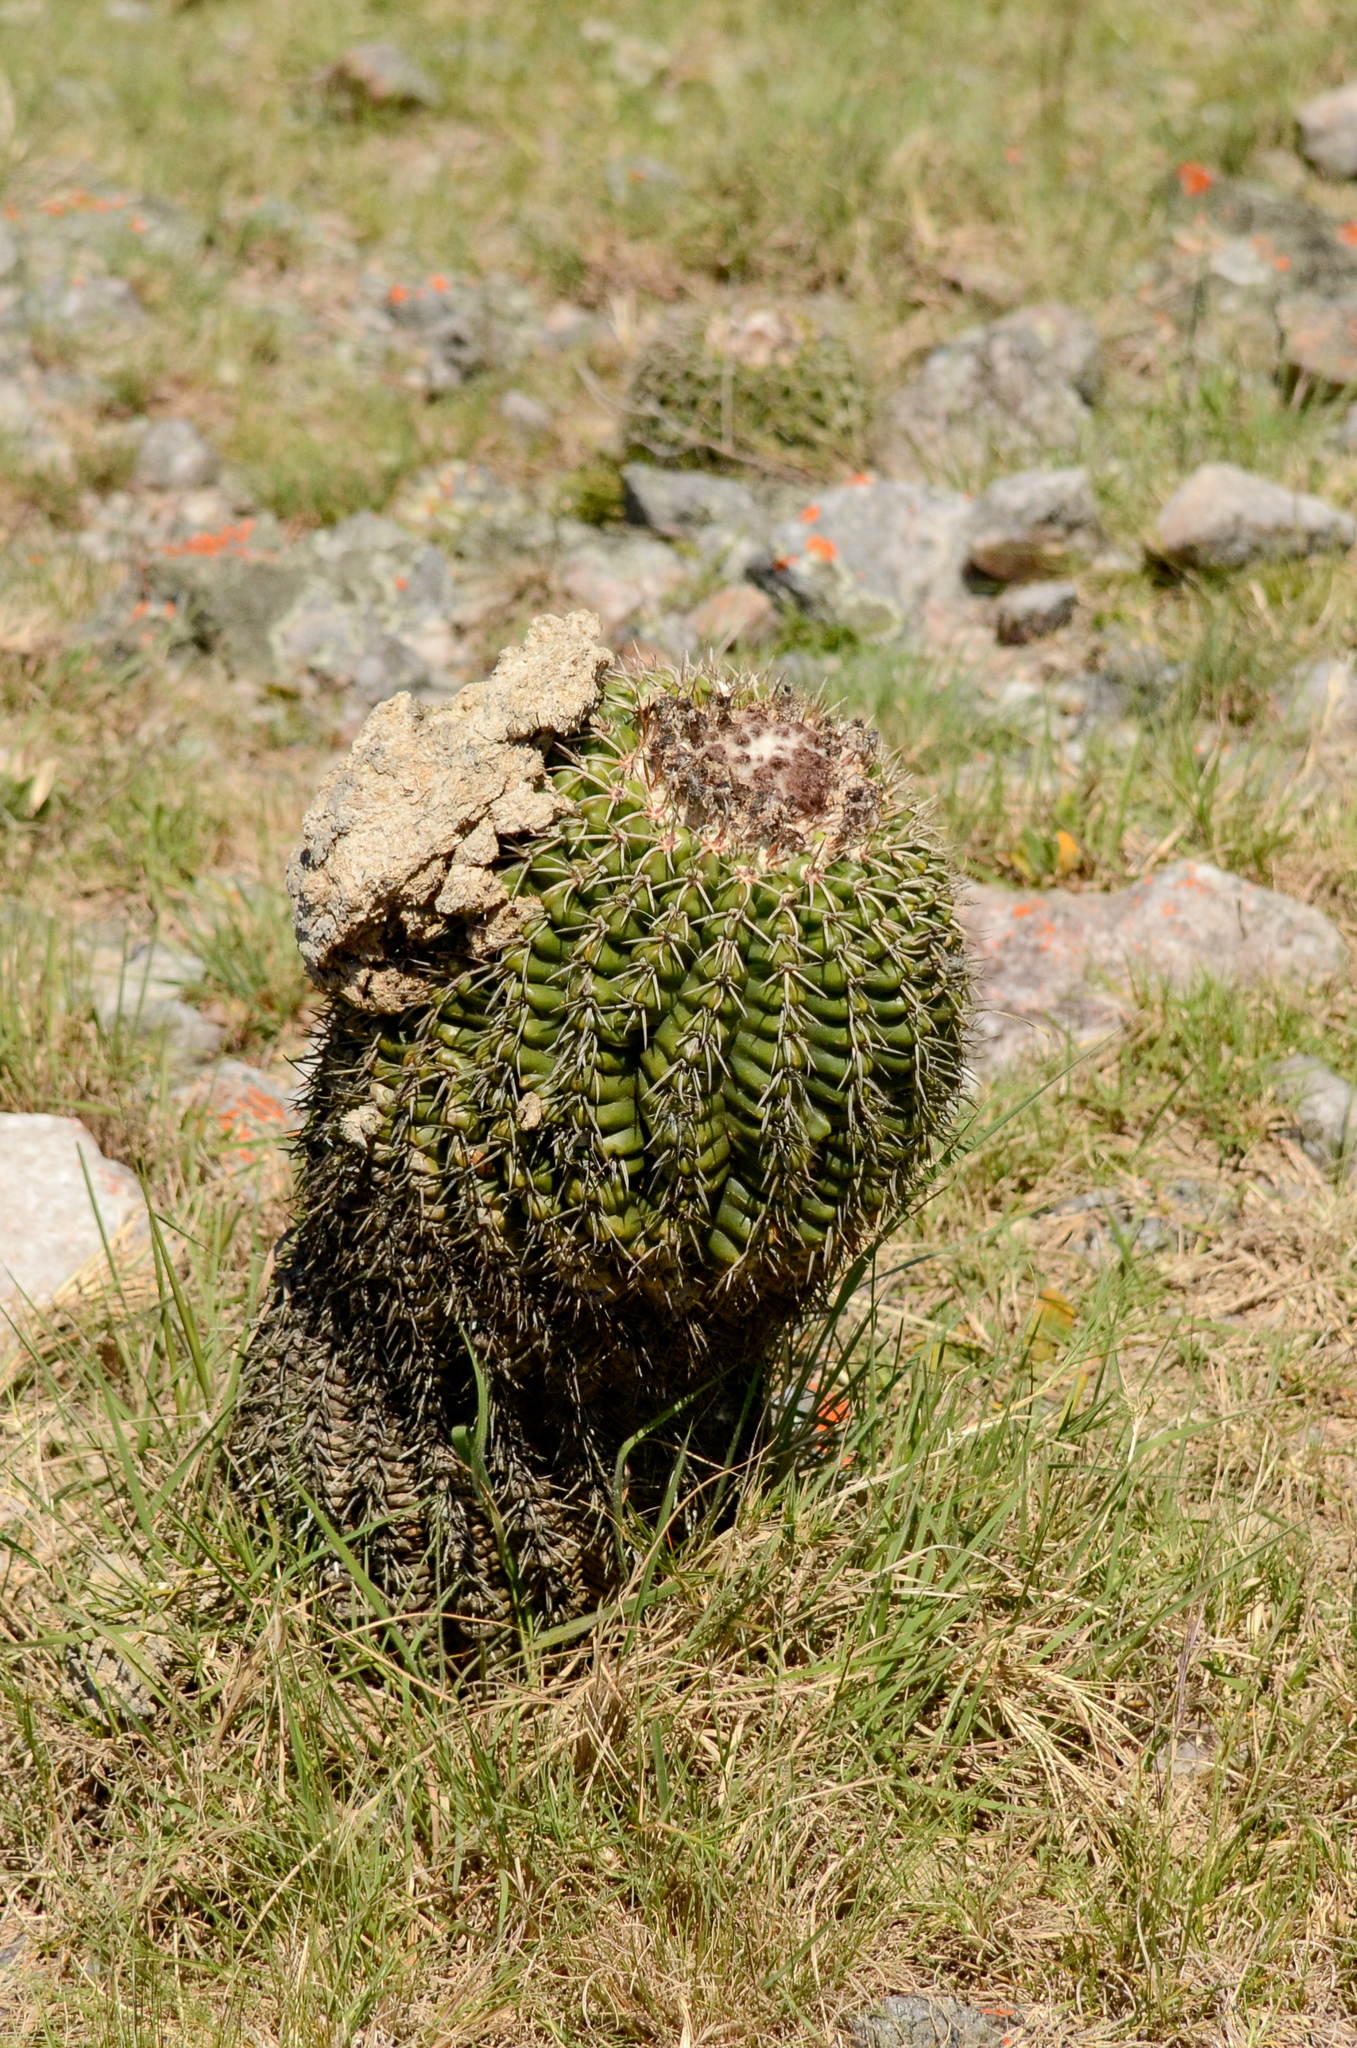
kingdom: Plantae
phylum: Tracheophyta
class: Magnoliopsida
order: Caryophyllales
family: Cactaceae
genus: Parodia
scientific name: Parodia langsdorfii
